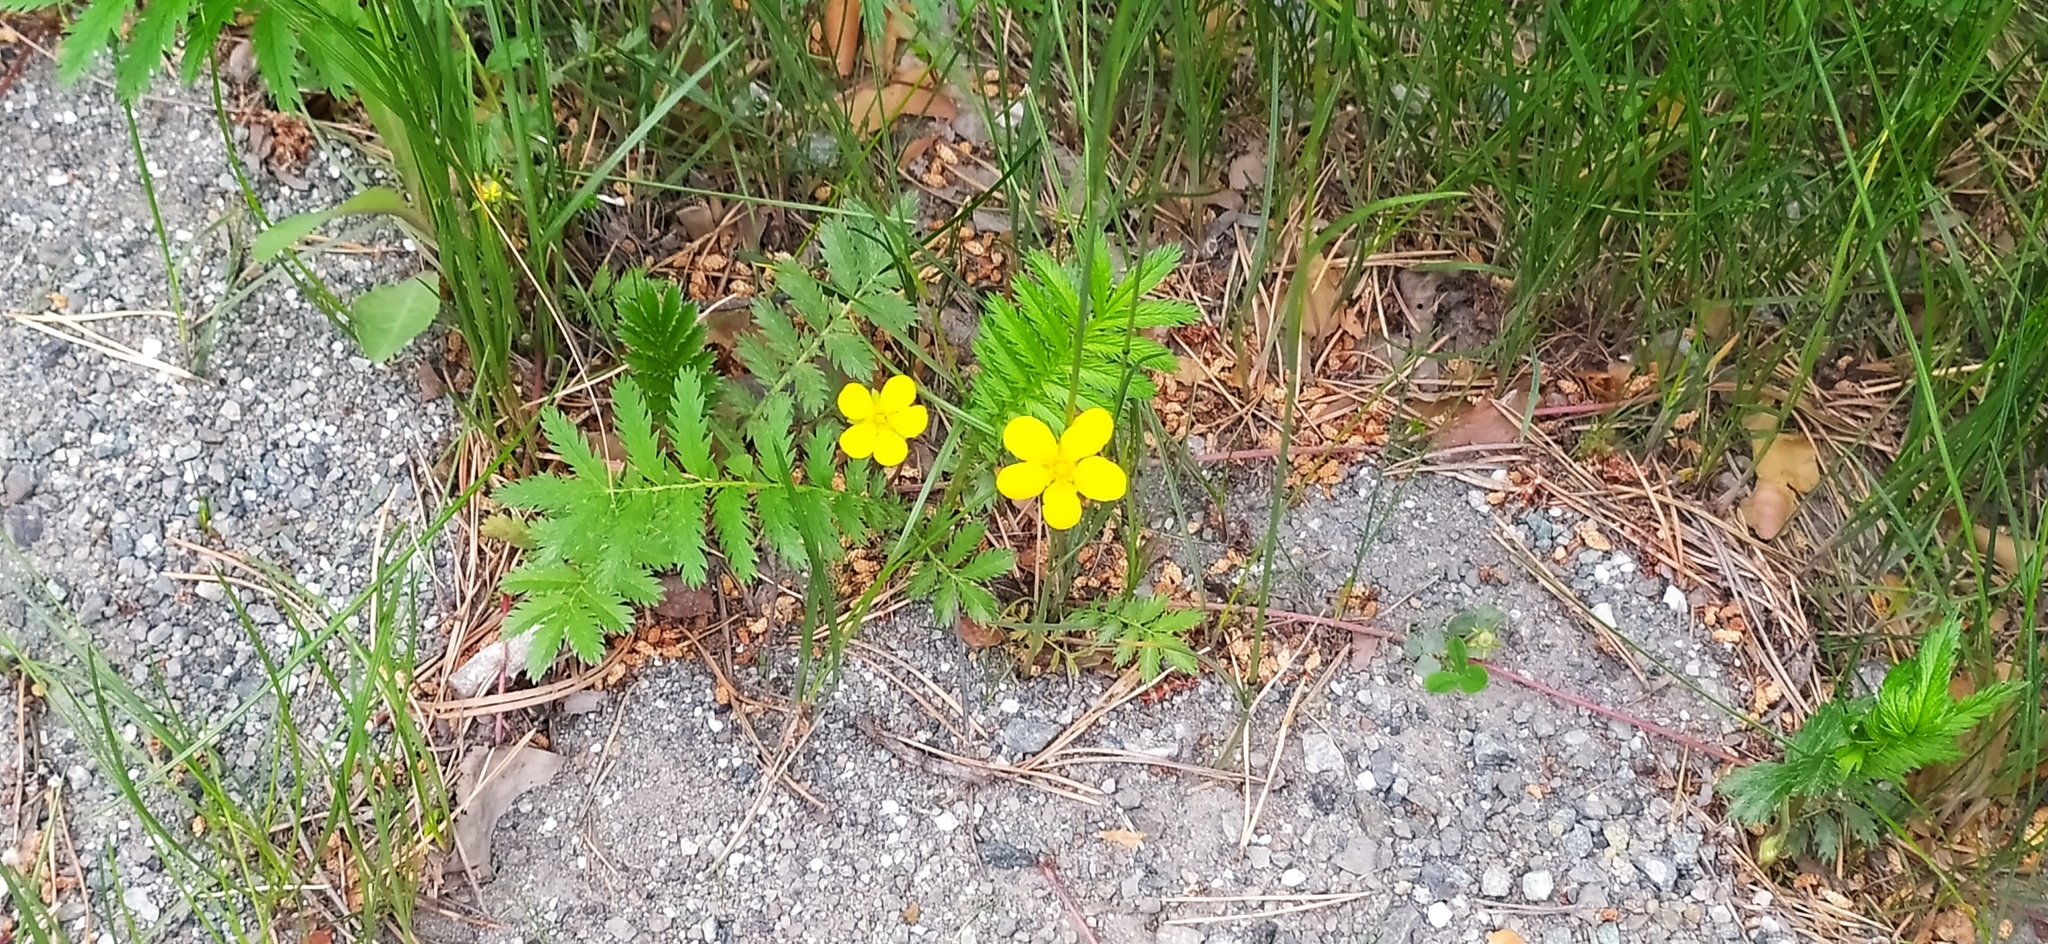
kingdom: Plantae
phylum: Tracheophyta
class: Magnoliopsida
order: Rosales
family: Rosaceae
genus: Argentina
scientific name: Argentina anserina
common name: Common silverweed
